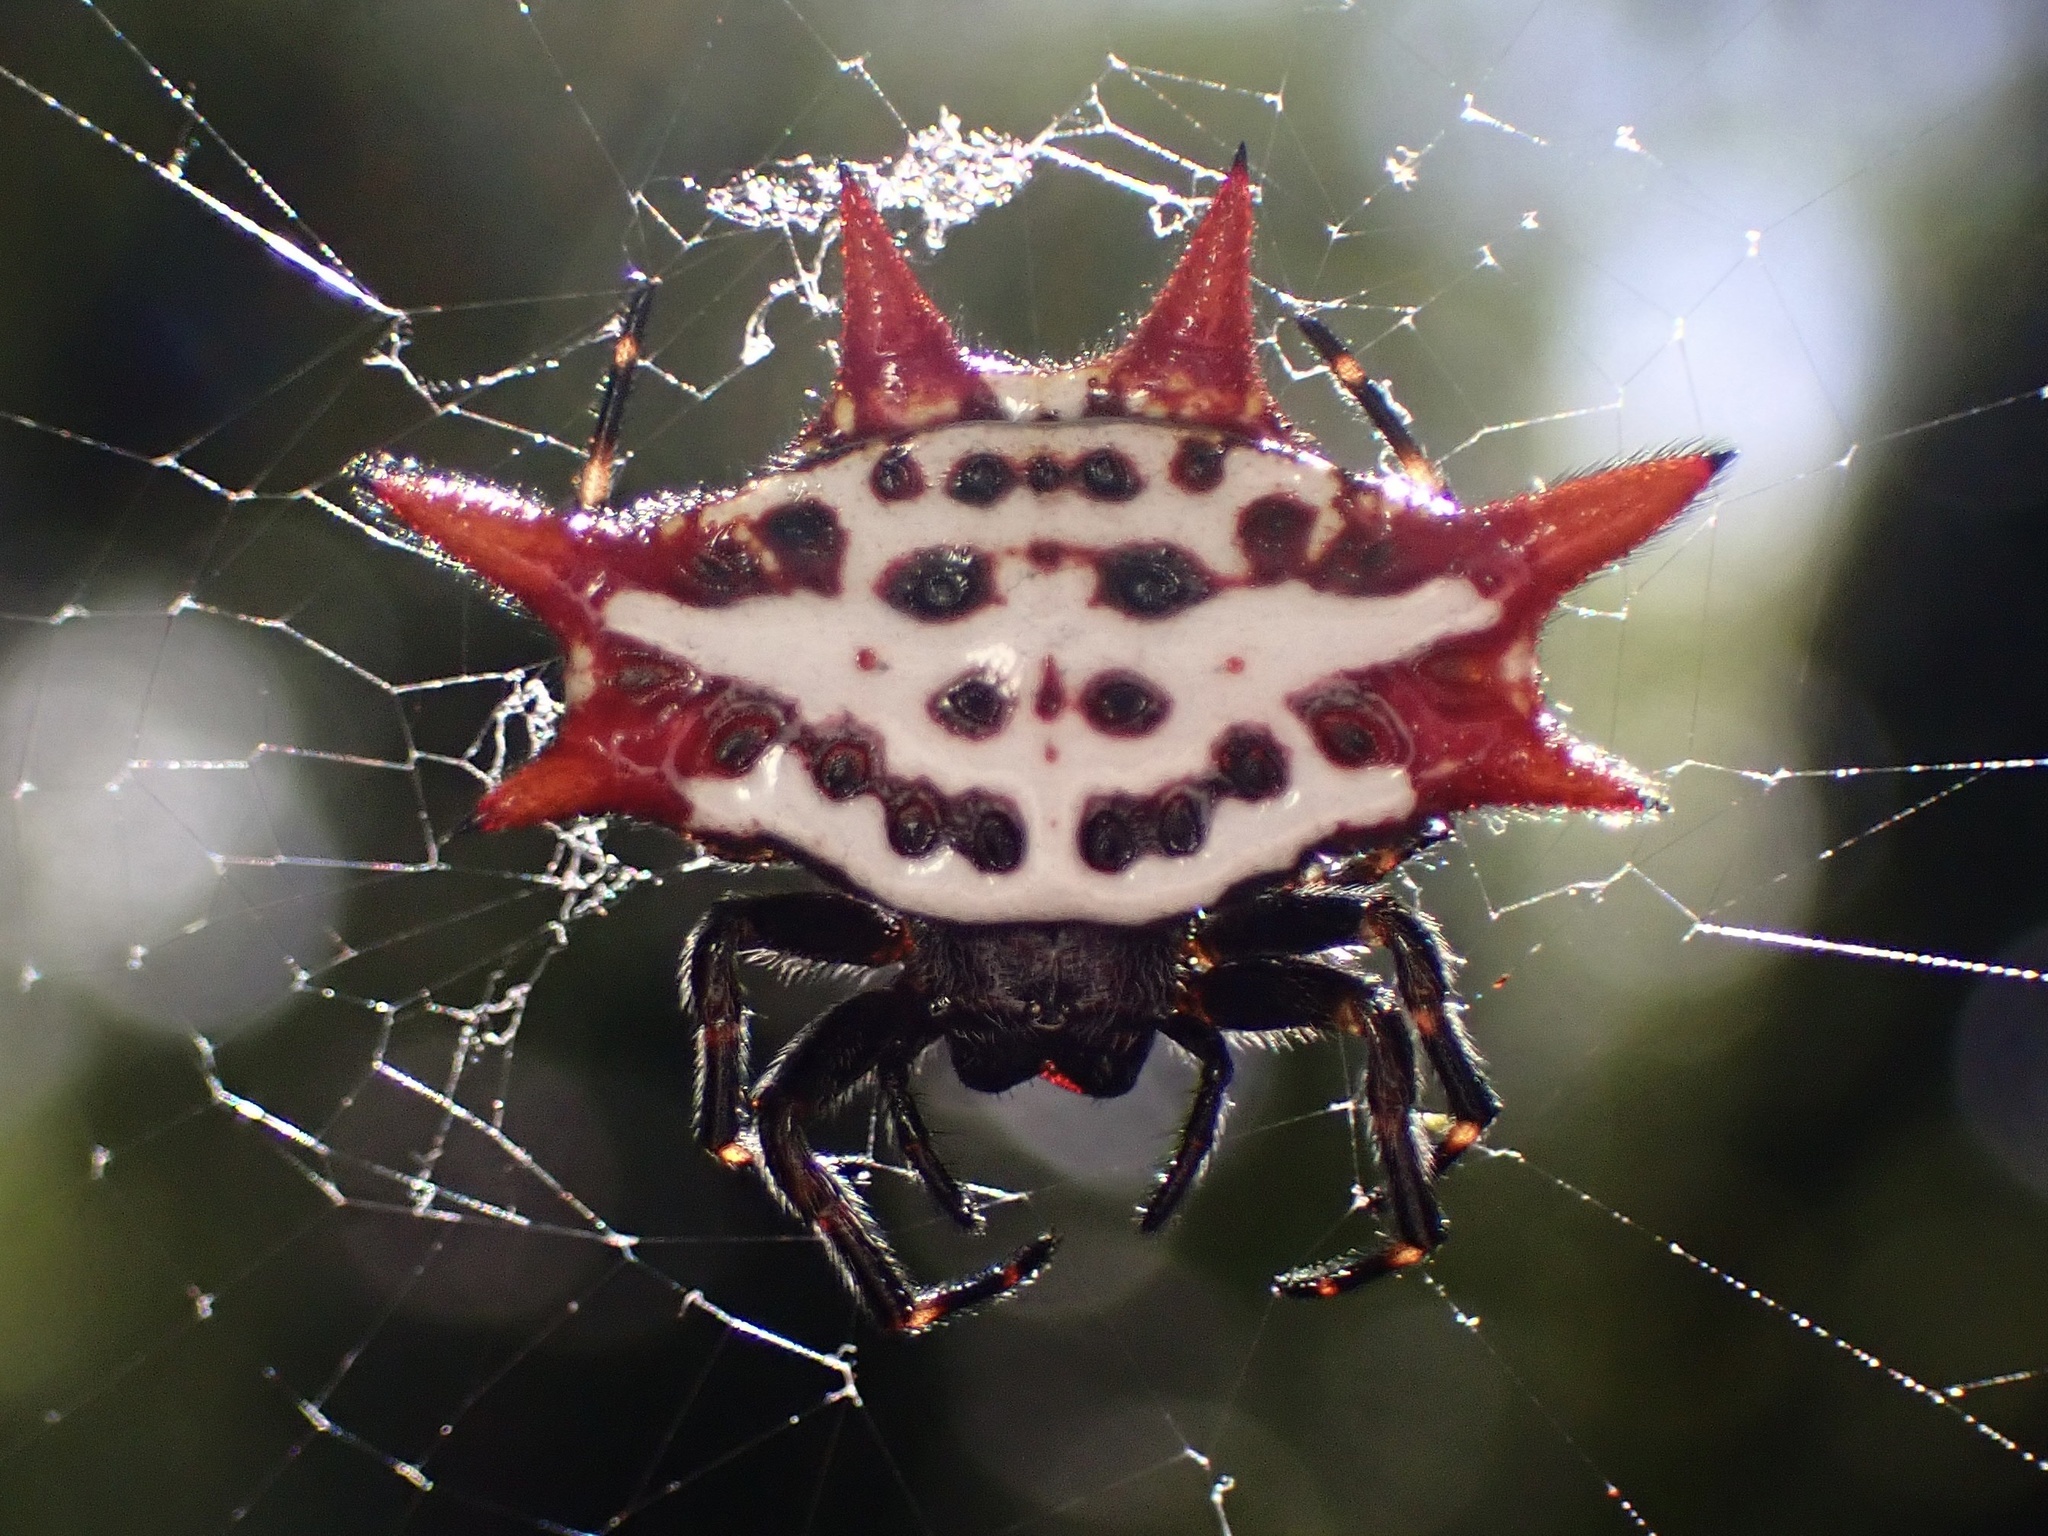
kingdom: Animalia
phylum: Arthropoda
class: Arachnida
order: Araneae
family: Araneidae
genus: Gasteracantha
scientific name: Gasteracantha cancriformis
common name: Orb weavers
